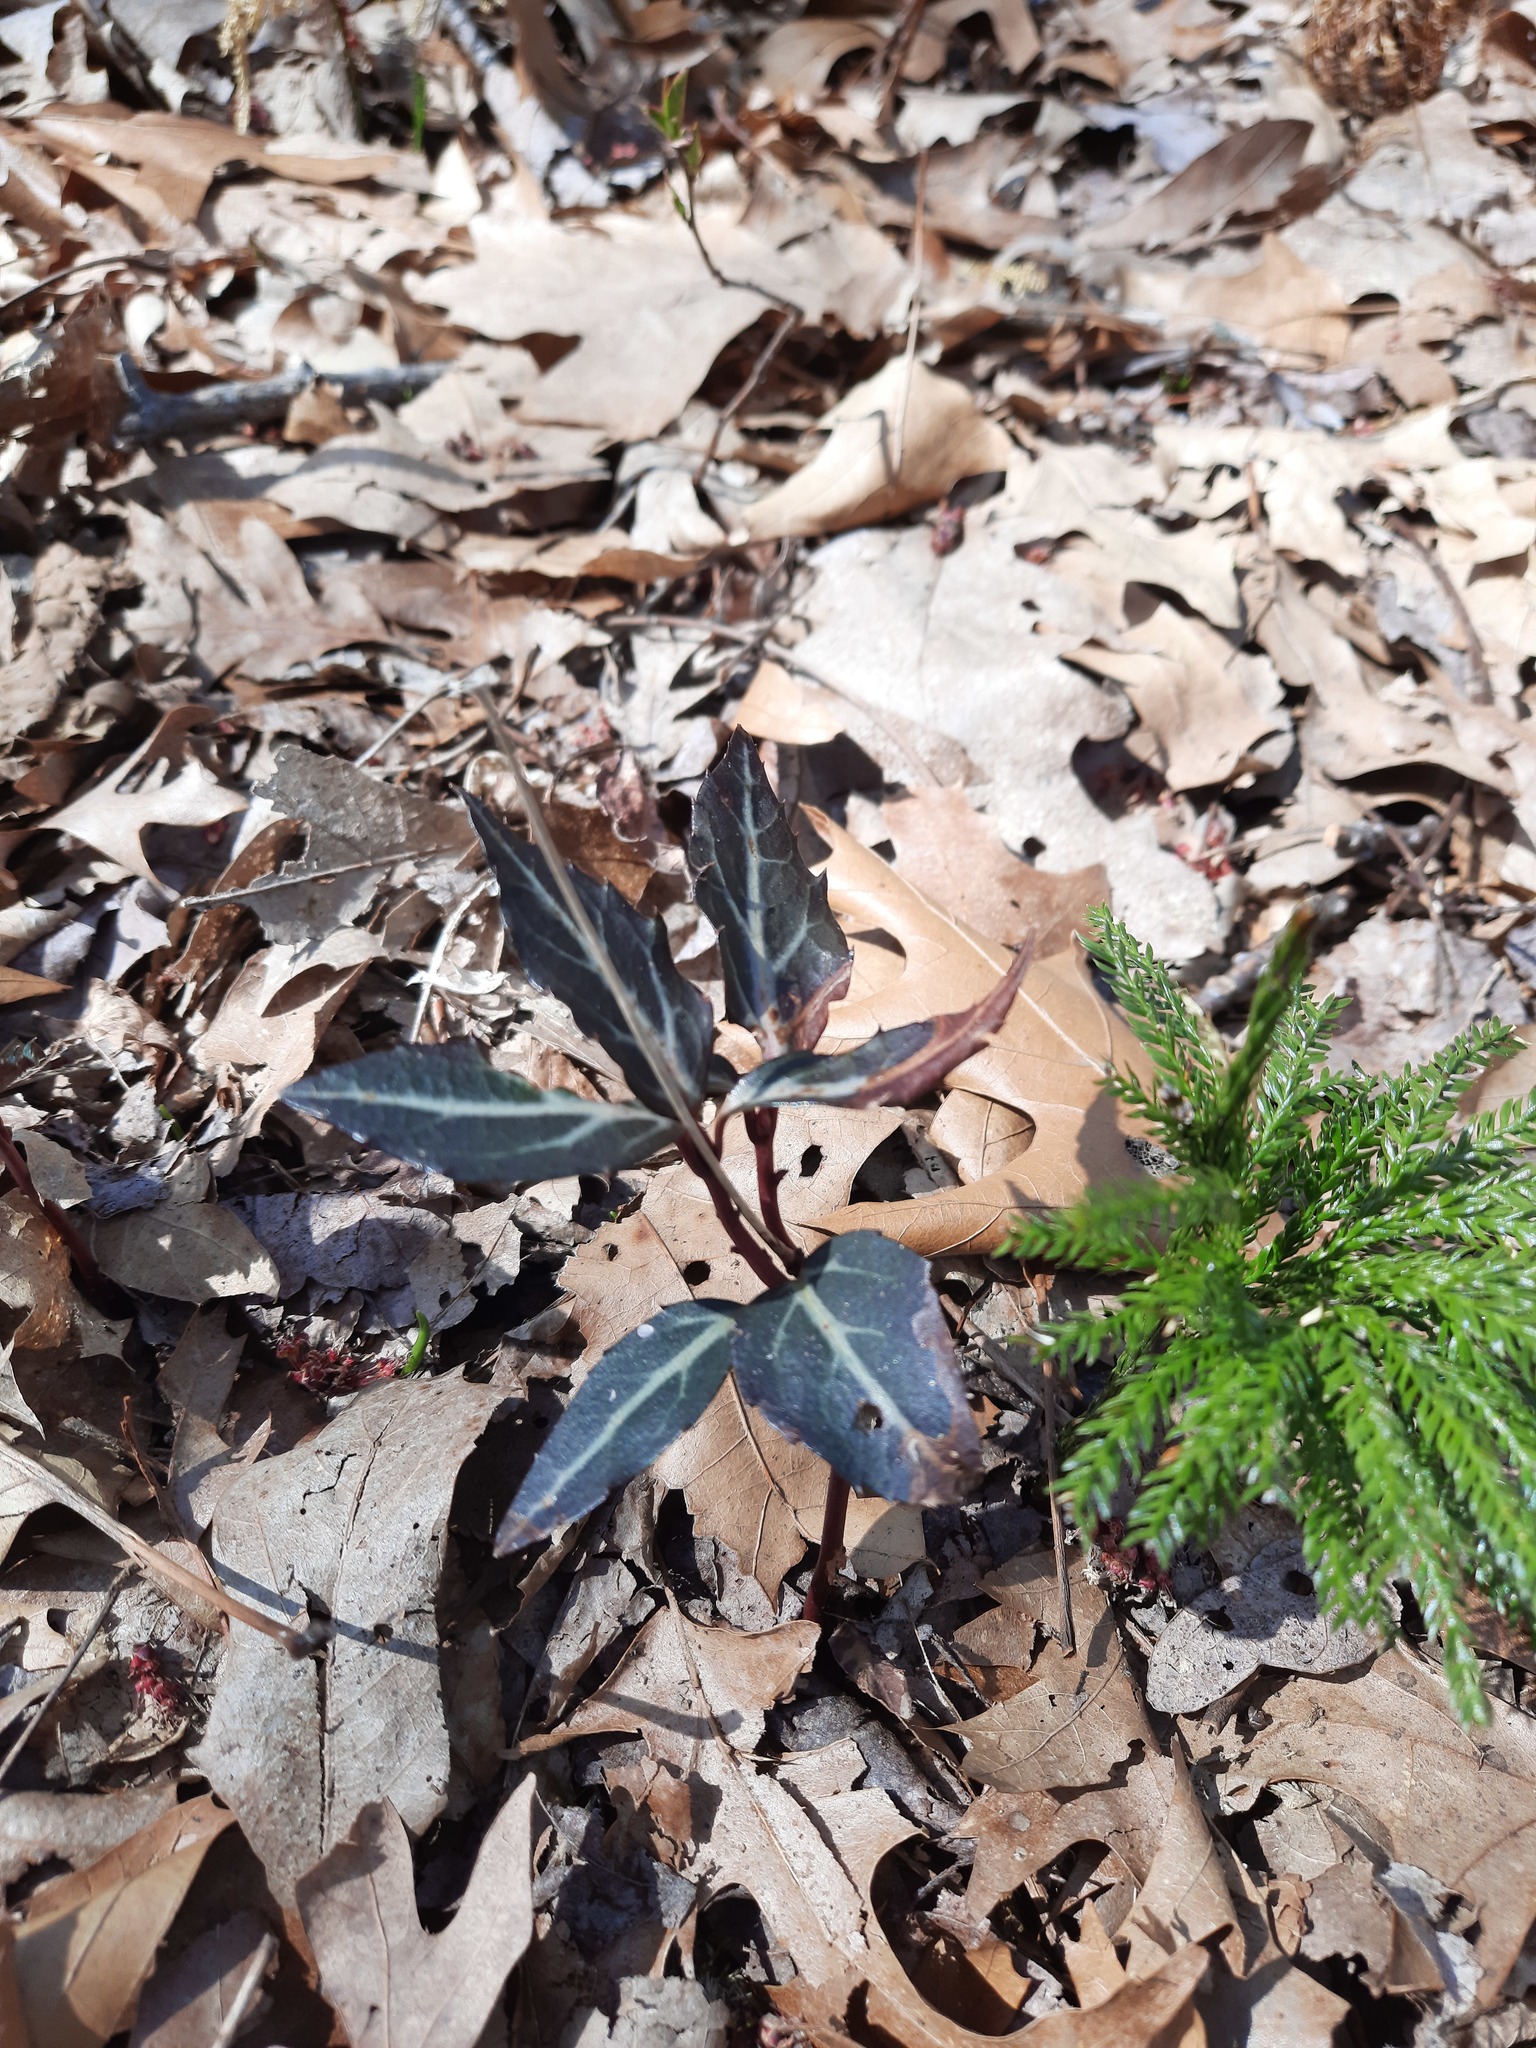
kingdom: Plantae
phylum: Tracheophyta
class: Magnoliopsida
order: Ericales
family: Ericaceae
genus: Chimaphila
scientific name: Chimaphila maculata
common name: Spotted pipsissewa
